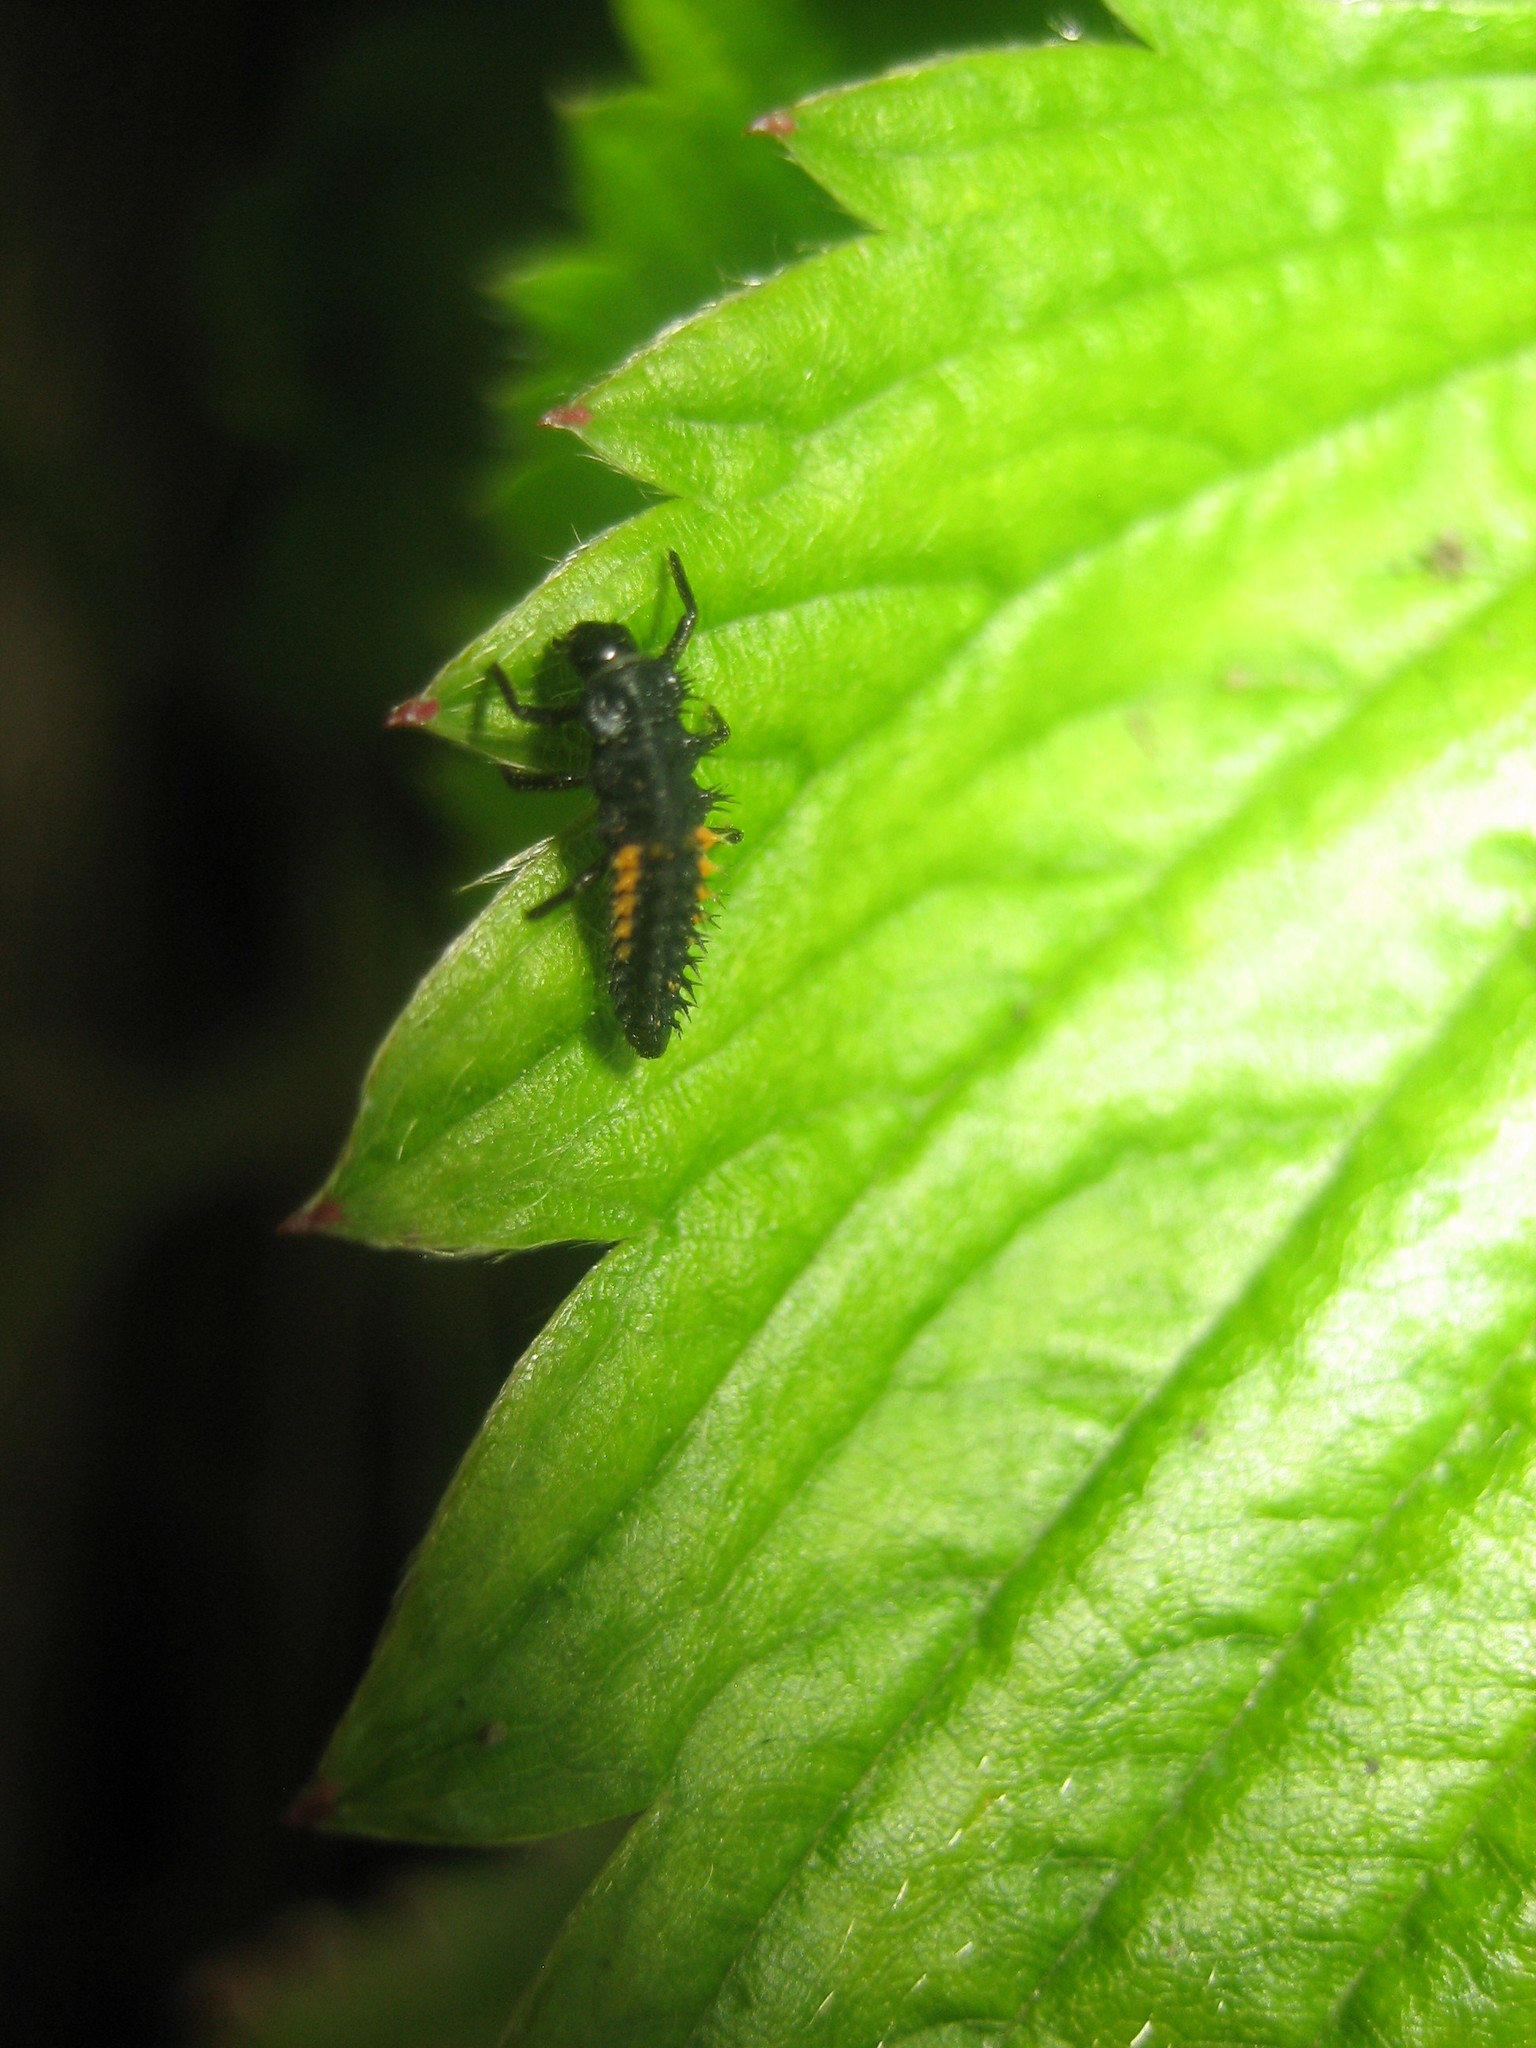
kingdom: Animalia
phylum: Arthropoda
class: Insecta
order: Coleoptera
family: Coccinellidae
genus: Harmonia
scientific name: Harmonia axyridis
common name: Harlequin ladybird
